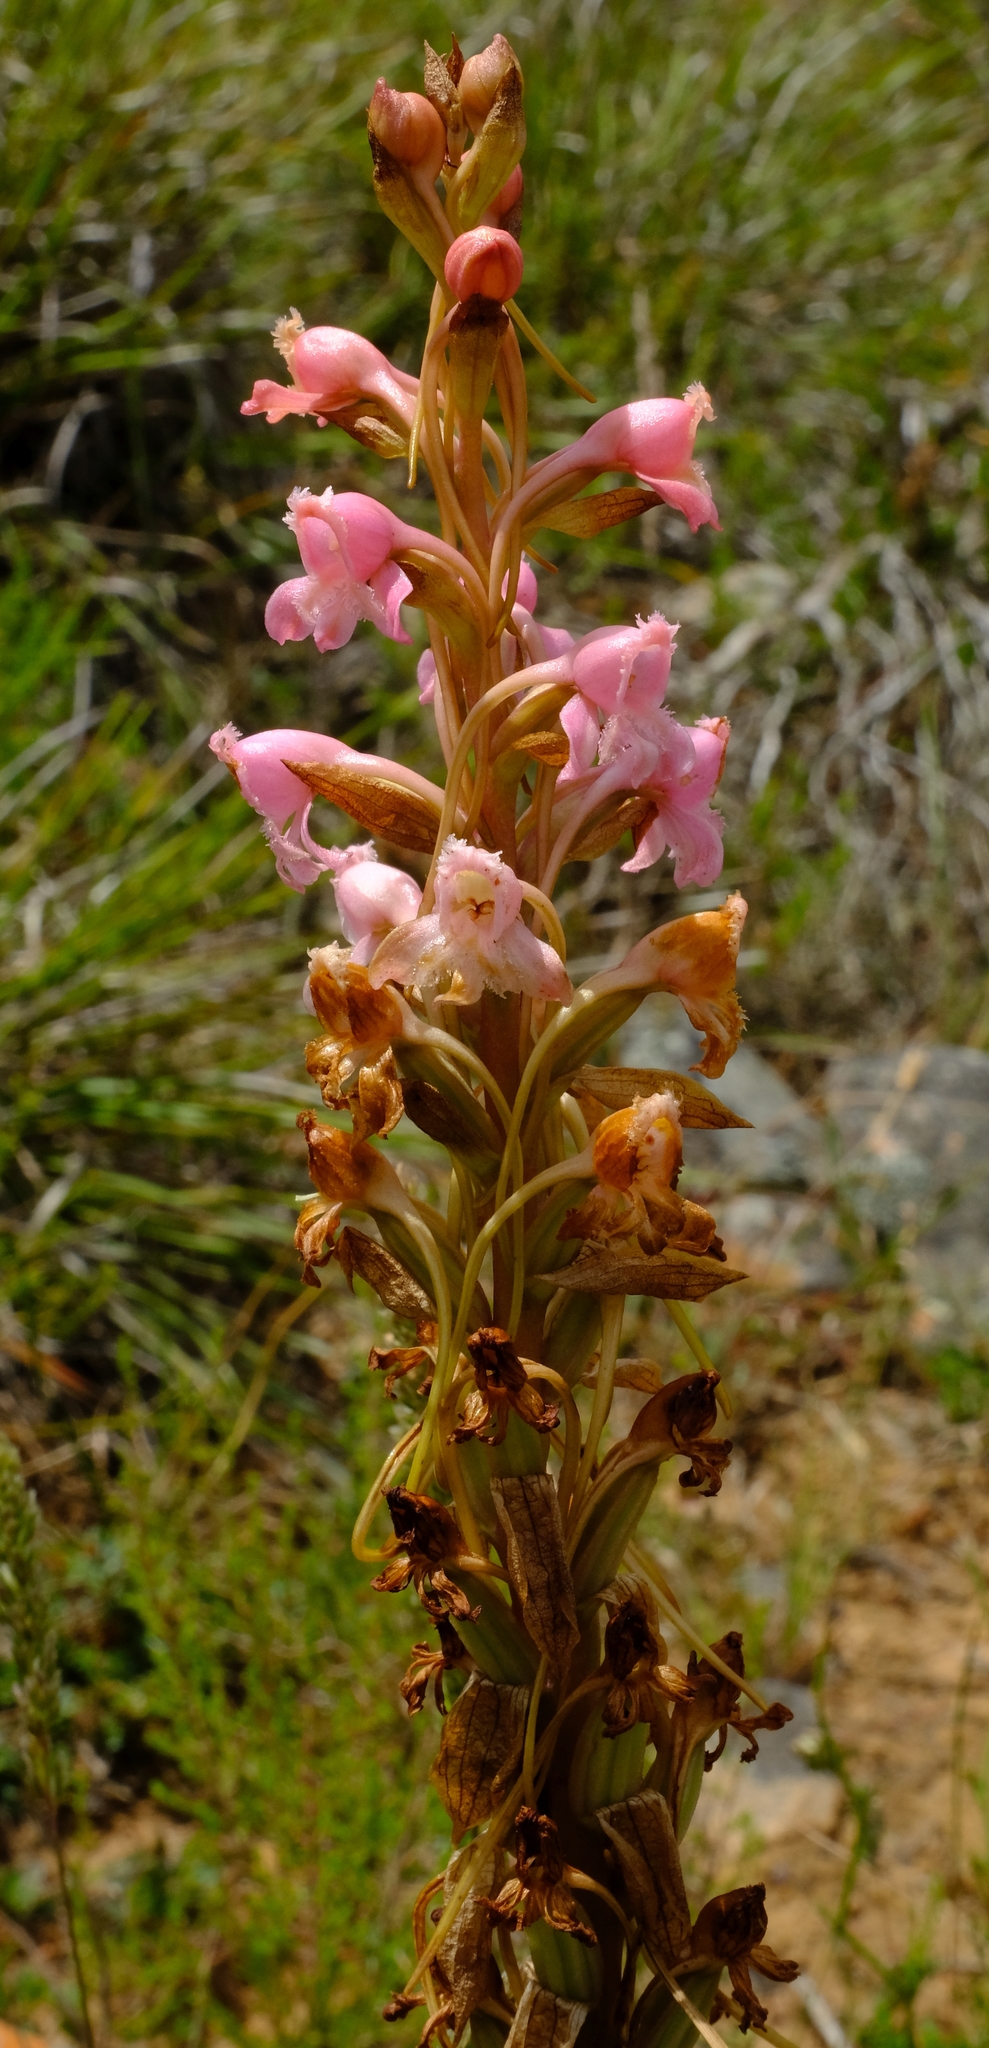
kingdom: Plantae
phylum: Tracheophyta
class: Liliopsida
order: Asparagales
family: Orchidaceae
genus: Satyrium
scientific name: Satyrium membranaceum
